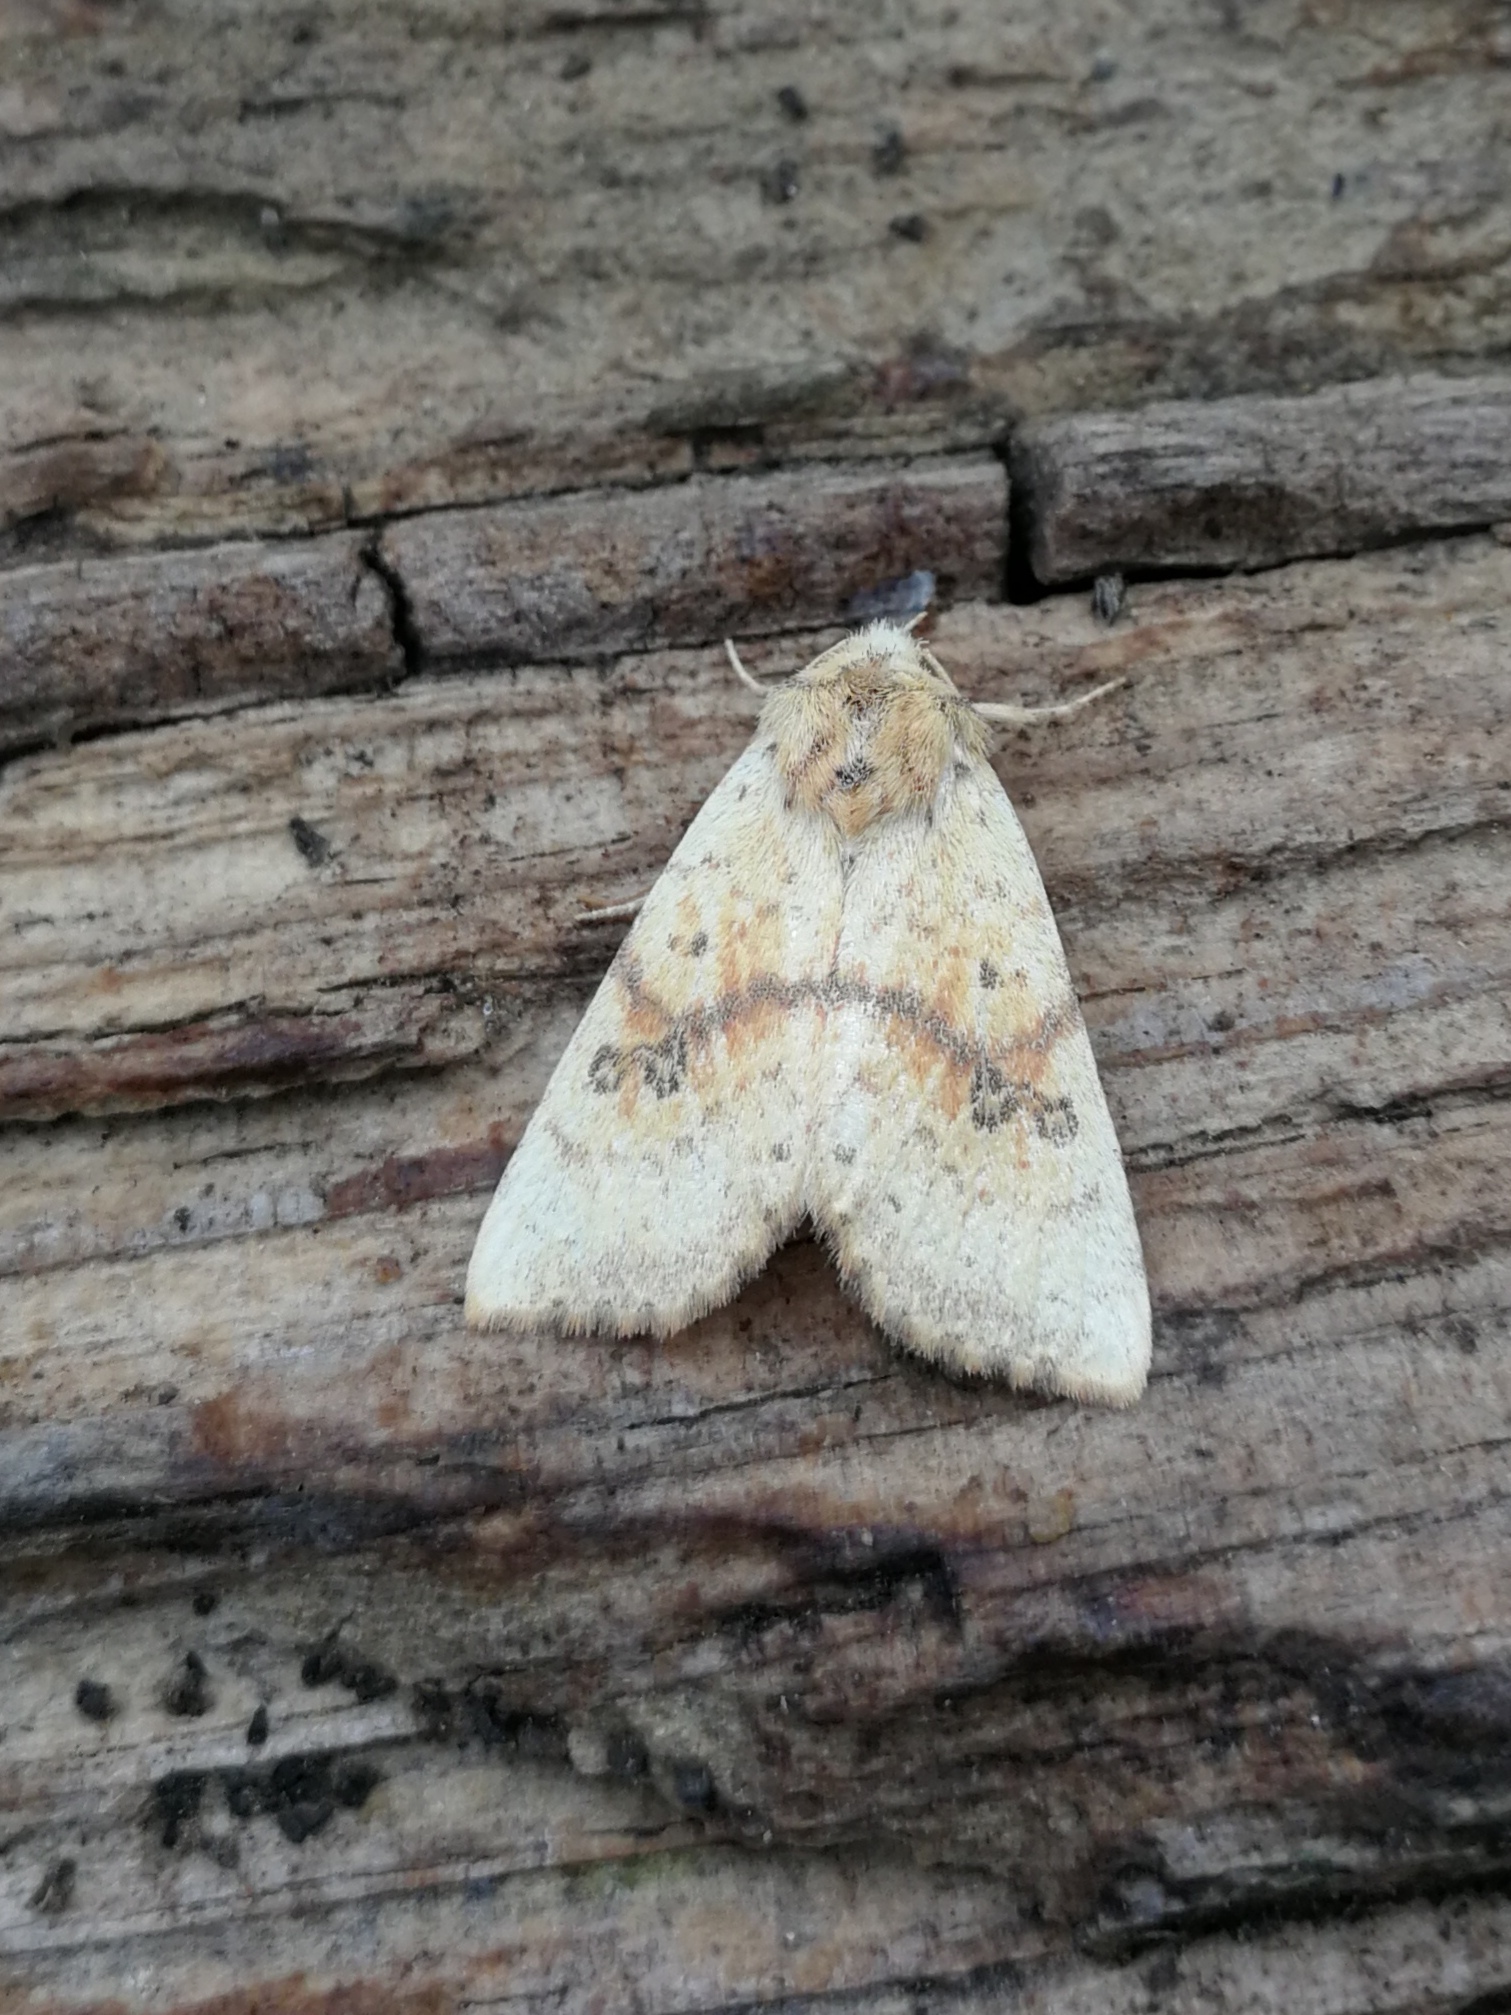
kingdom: Animalia
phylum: Arthropoda
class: Insecta
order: Lepidoptera
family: Noctuidae
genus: Tiliacea
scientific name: Tiliacea sulphurago
